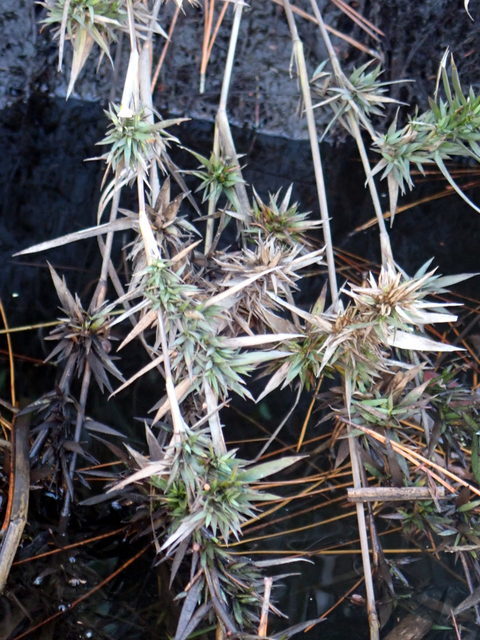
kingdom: Plantae
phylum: Tracheophyta
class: Liliopsida
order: Poales
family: Poaceae
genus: Dichanthelium
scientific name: Dichanthelium scabriusculum
